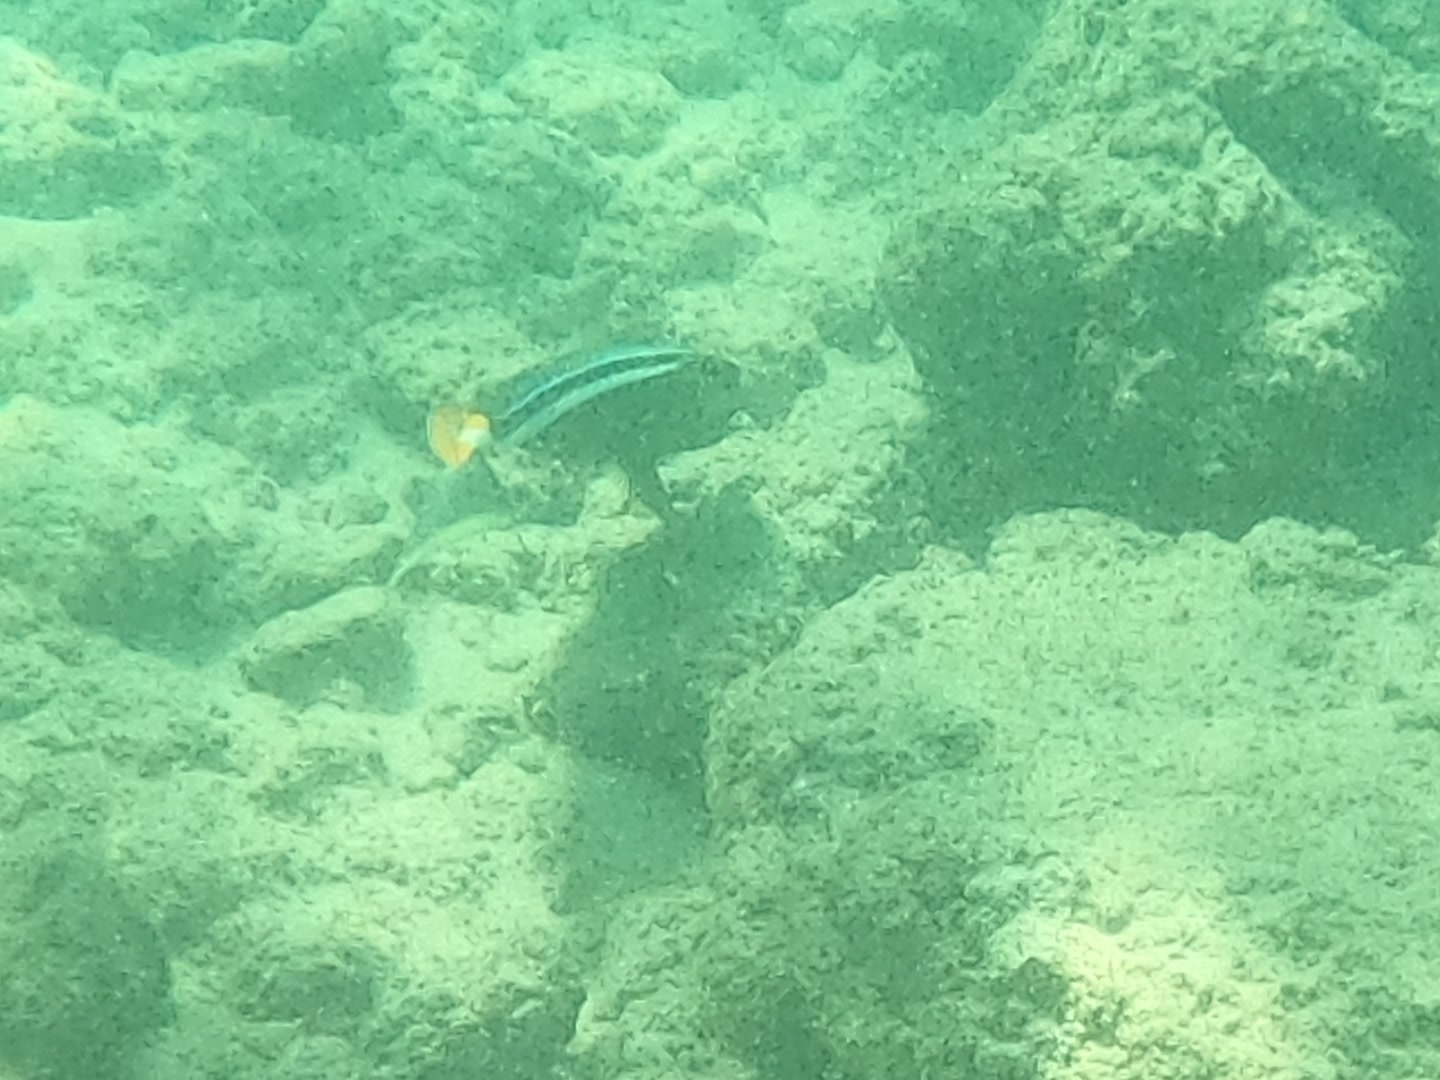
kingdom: Animalia
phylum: Chordata
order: Perciformes
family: Acanthuridae
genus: Naso
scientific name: Naso lituratus
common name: Orangespine unicornfish
